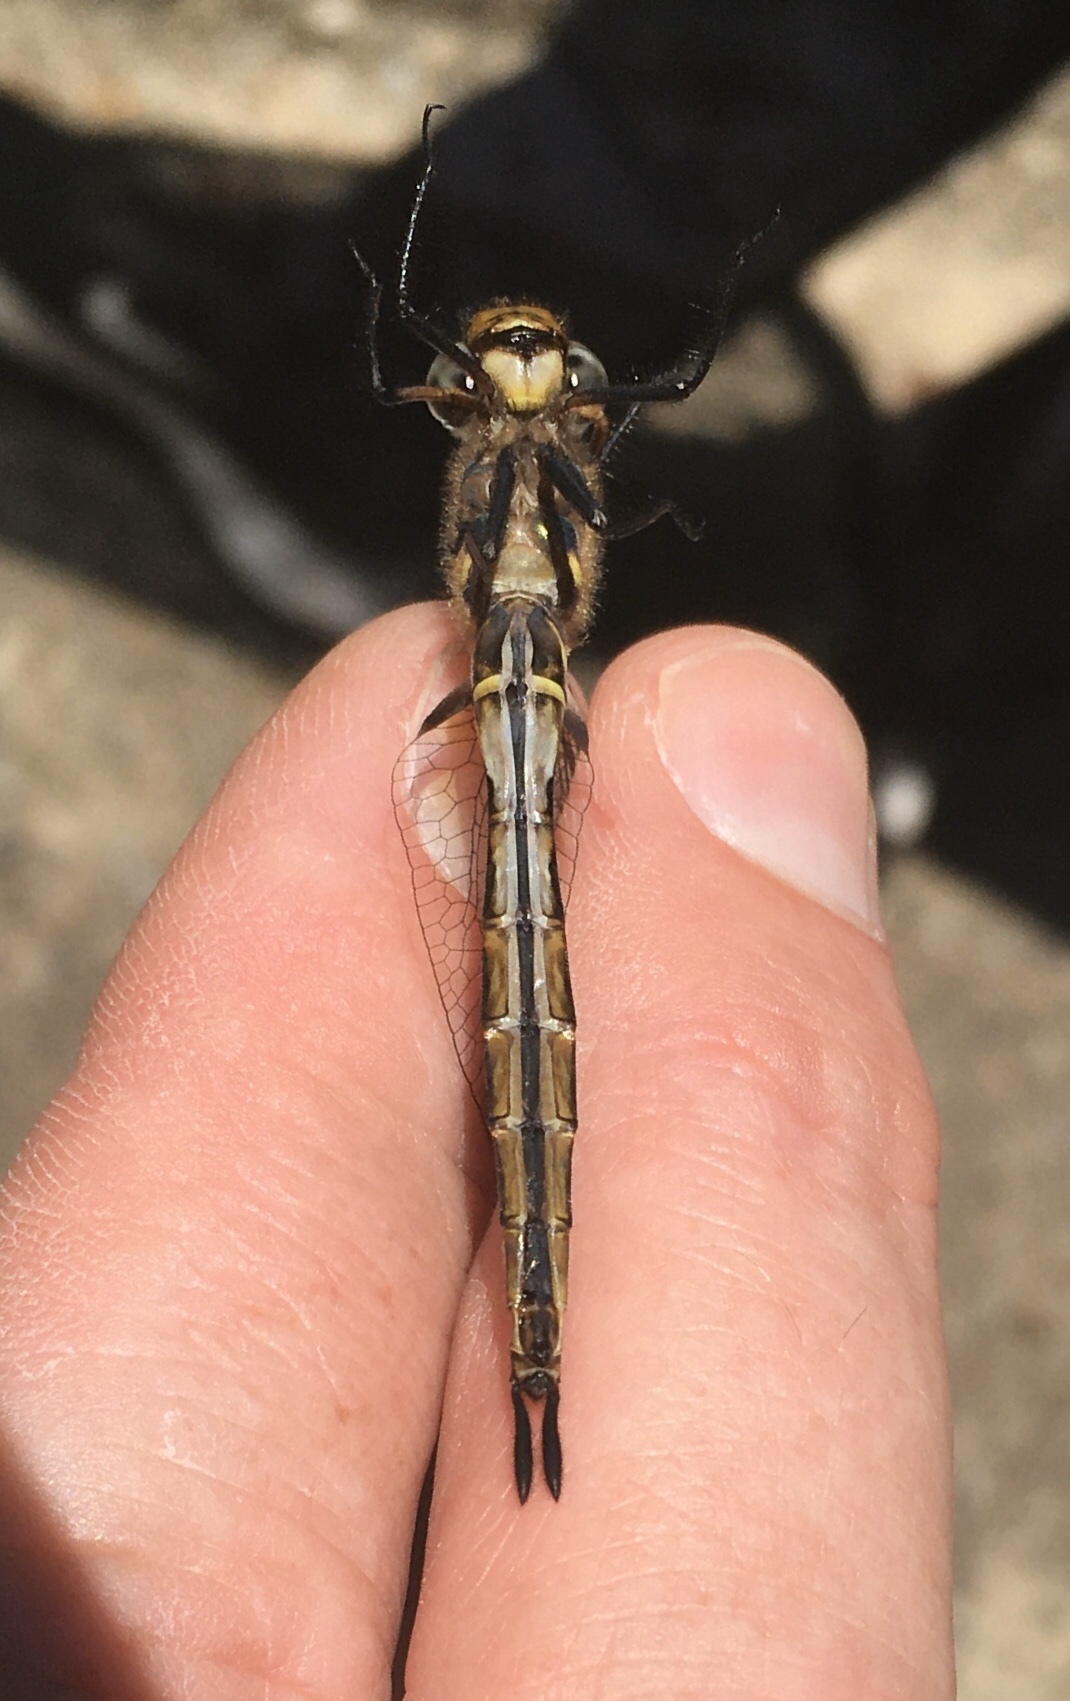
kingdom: Animalia
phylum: Arthropoda
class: Insecta
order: Odonata
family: Corduliidae
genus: Somatochlora
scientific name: Somatochlora walshii
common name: Brush-tipped emerald
